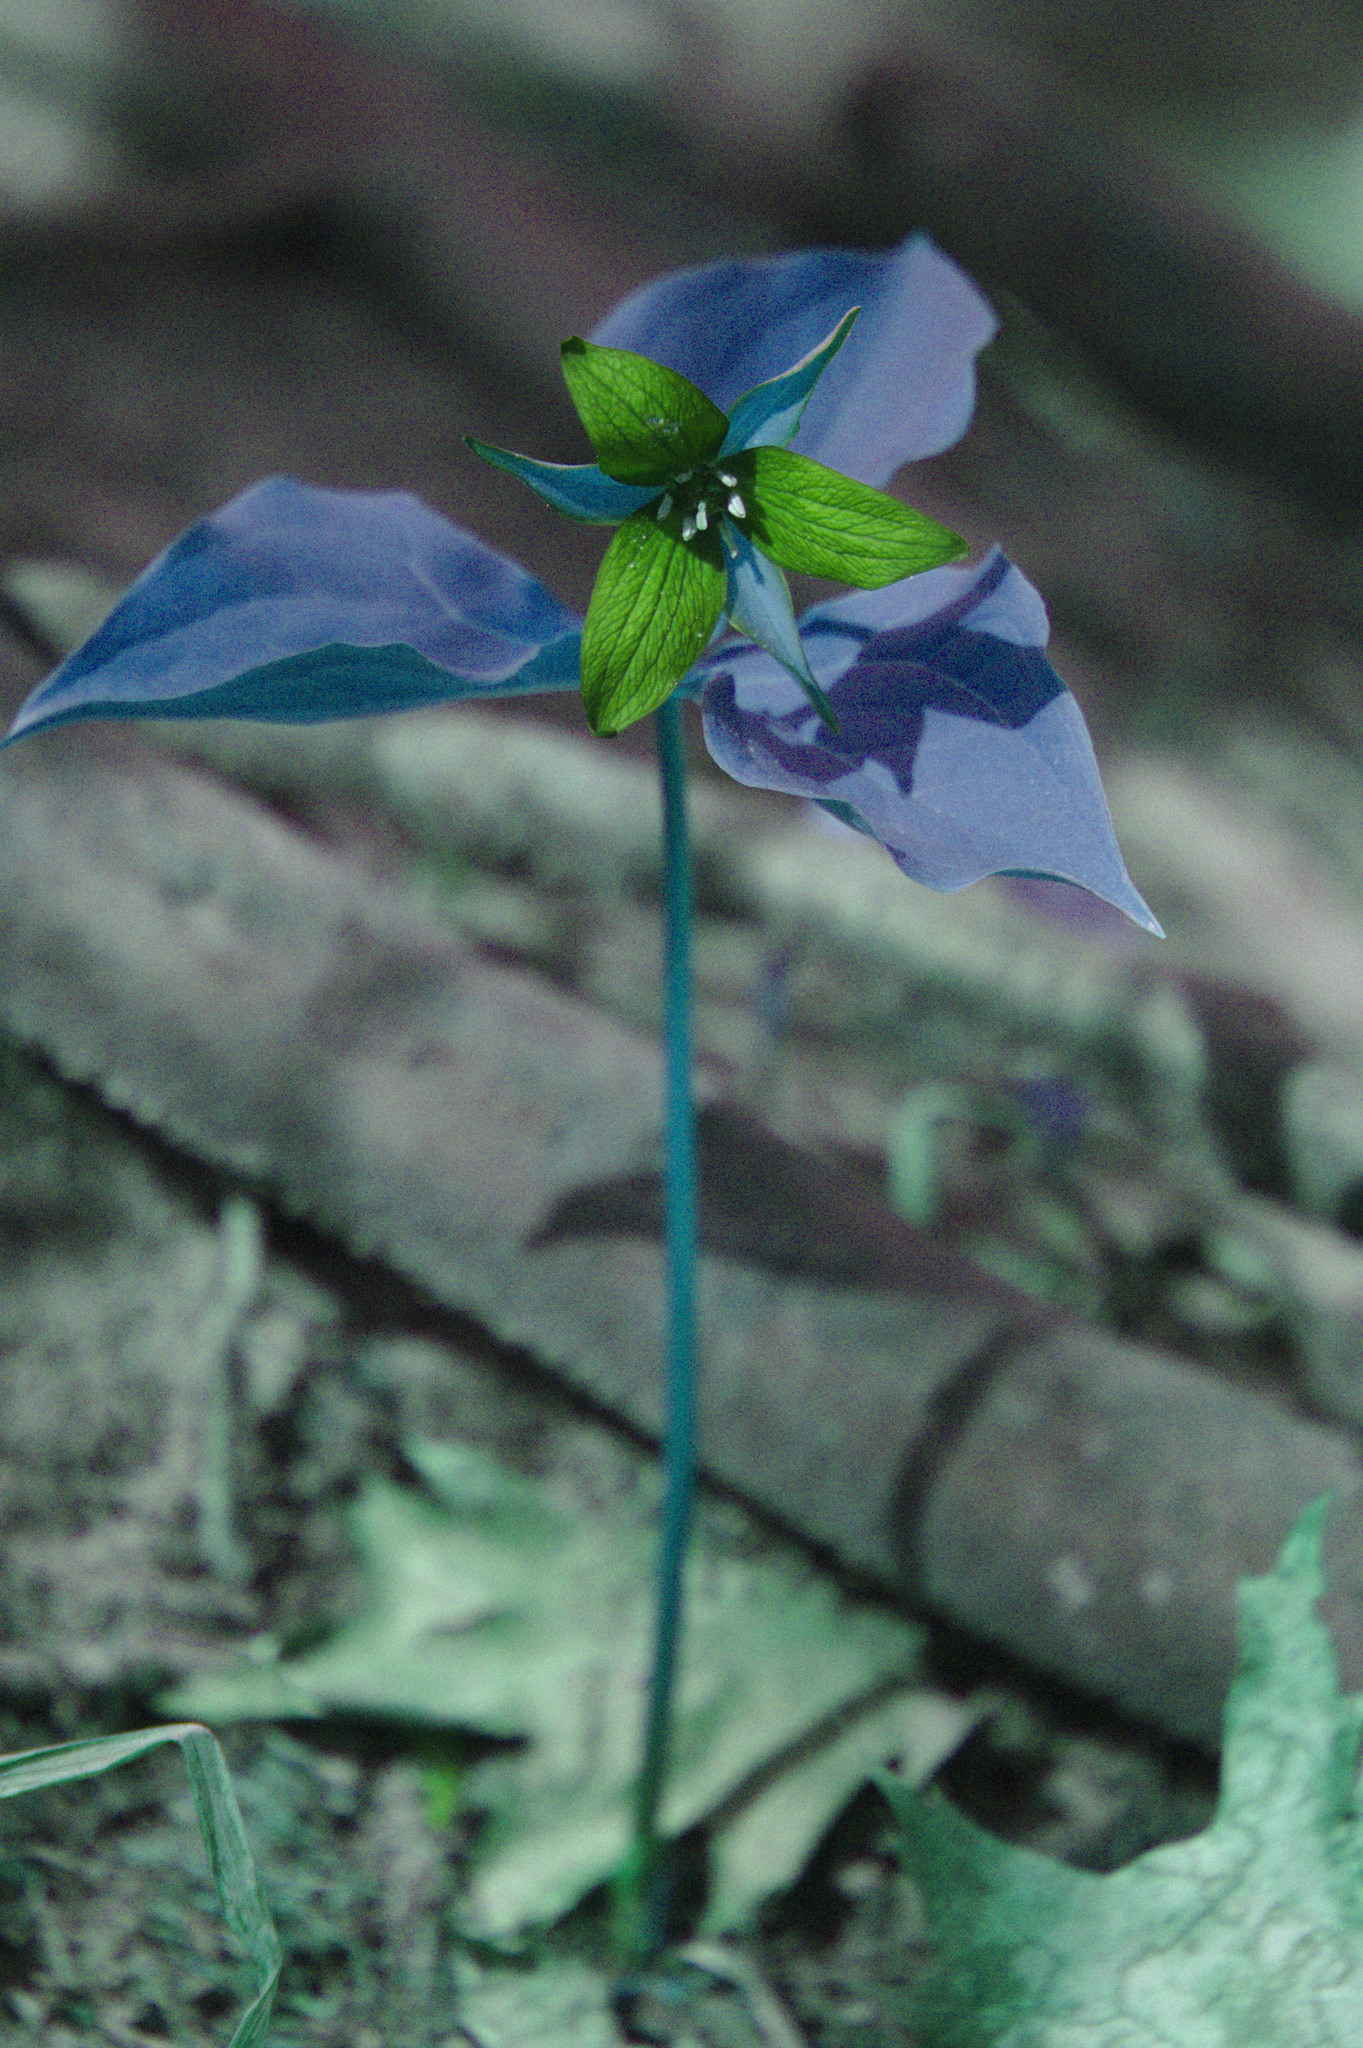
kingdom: Plantae
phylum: Tracheophyta
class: Liliopsida
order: Liliales
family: Melanthiaceae
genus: Trillium
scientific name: Trillium erectum
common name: Purple trillium
